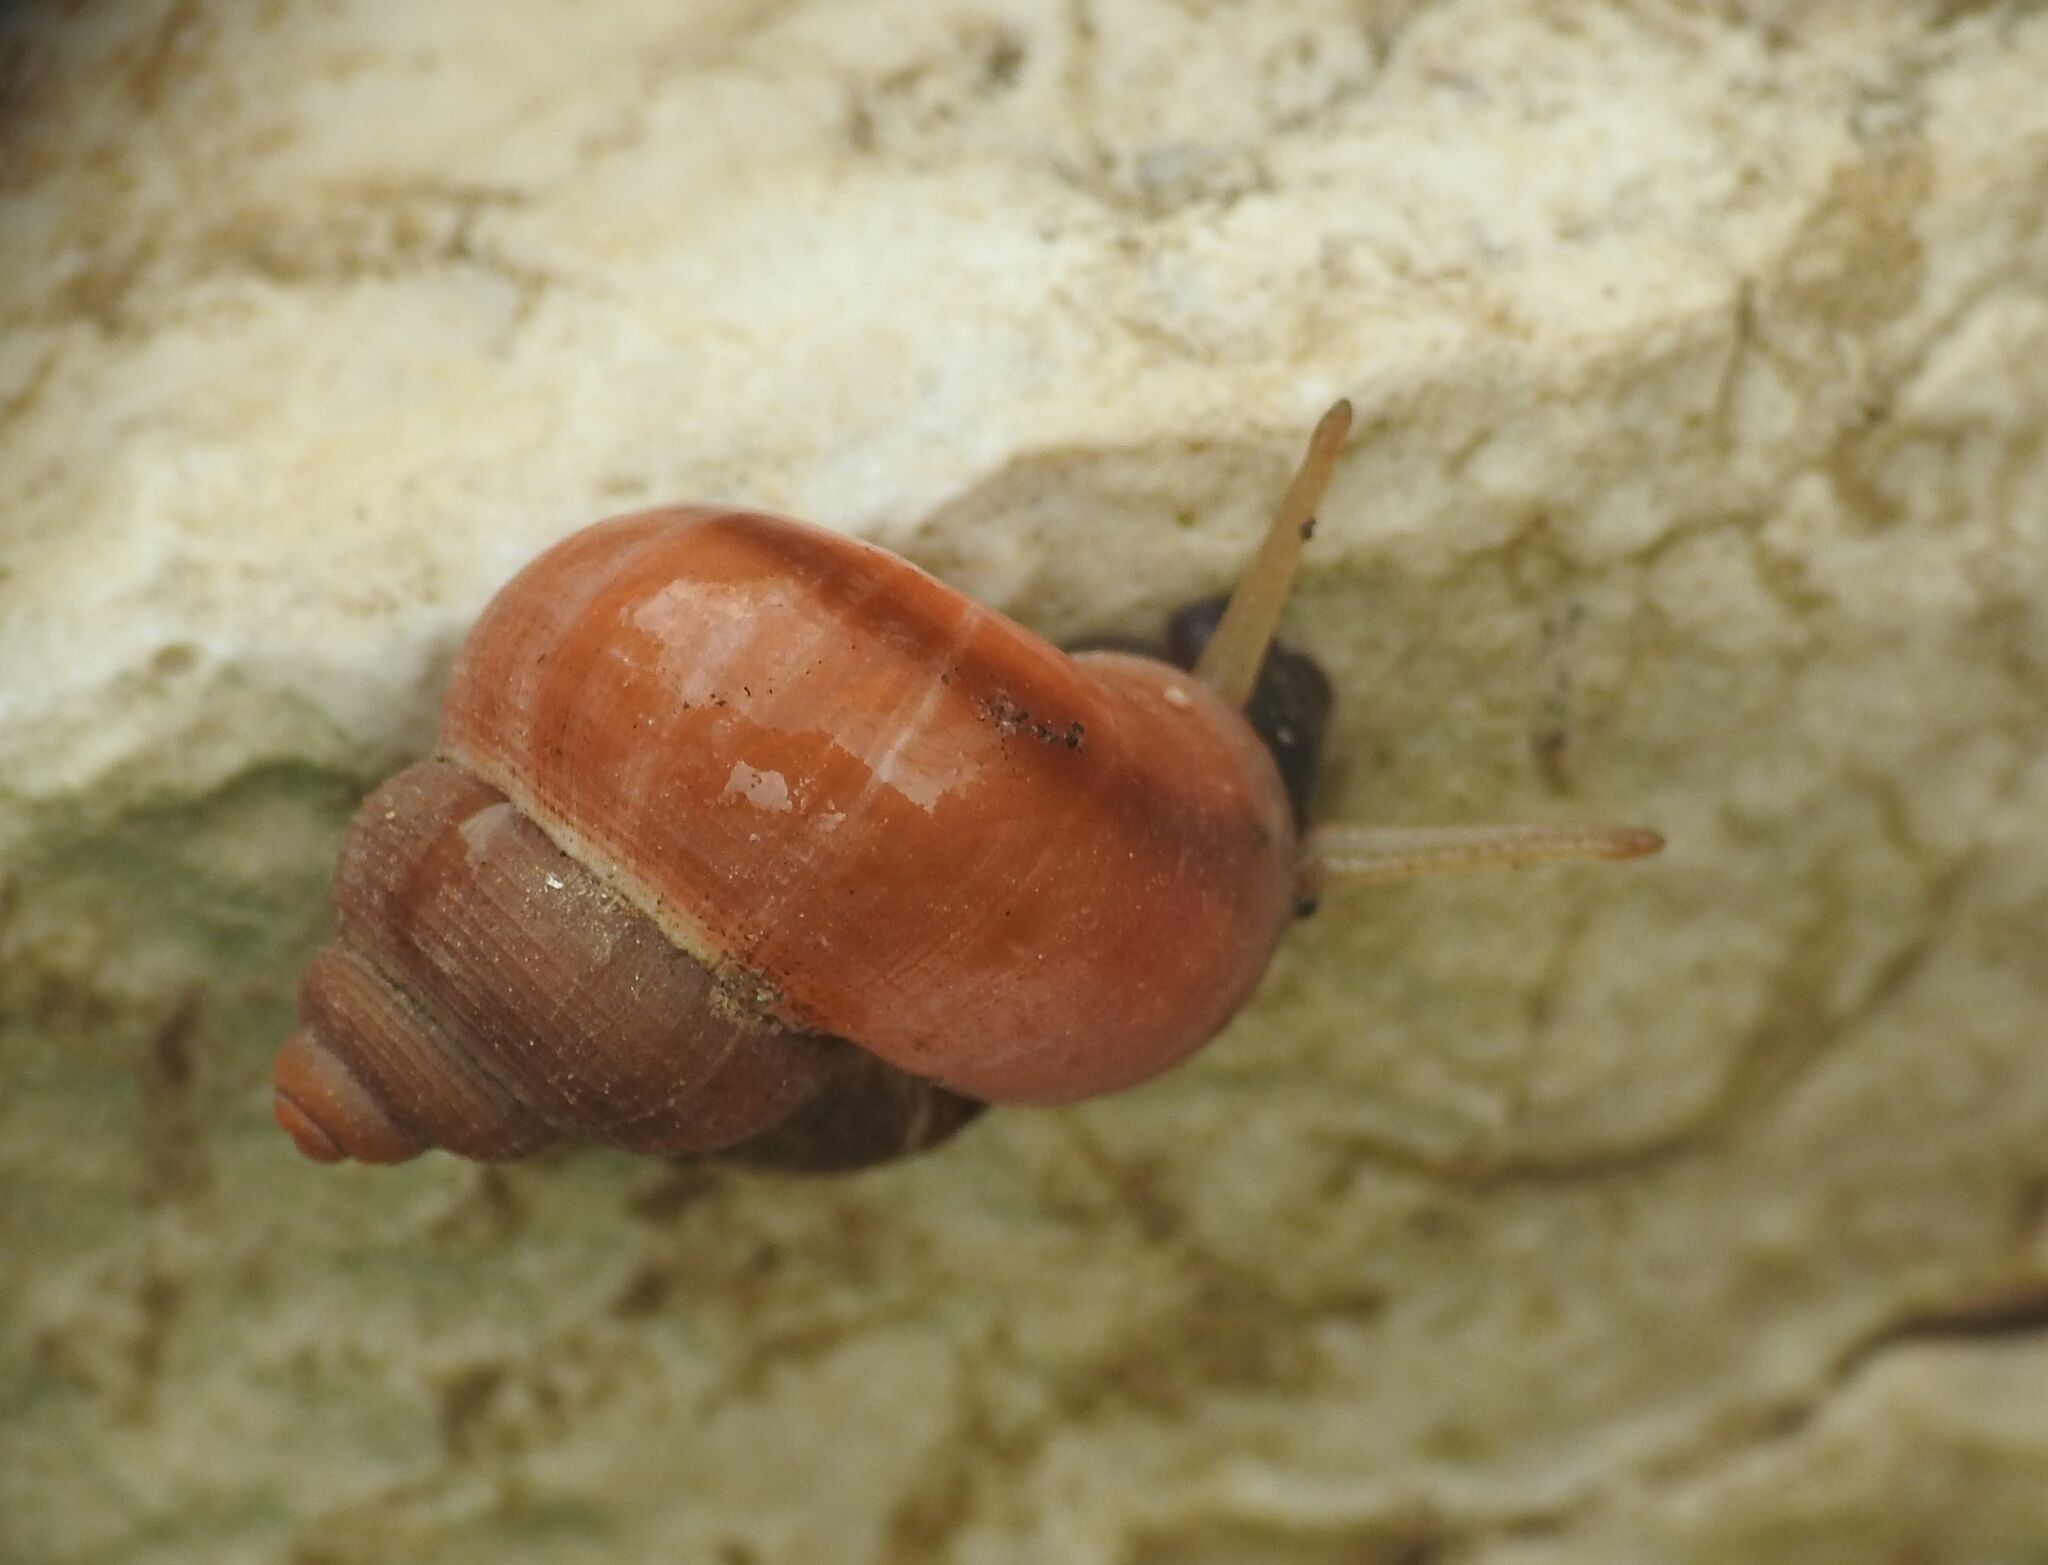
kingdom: Animalia
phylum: Mollusca
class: Gastropoda
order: Littorinimorpha
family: Pomatiidae
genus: Tudorella
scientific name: Tudorella sulcata
